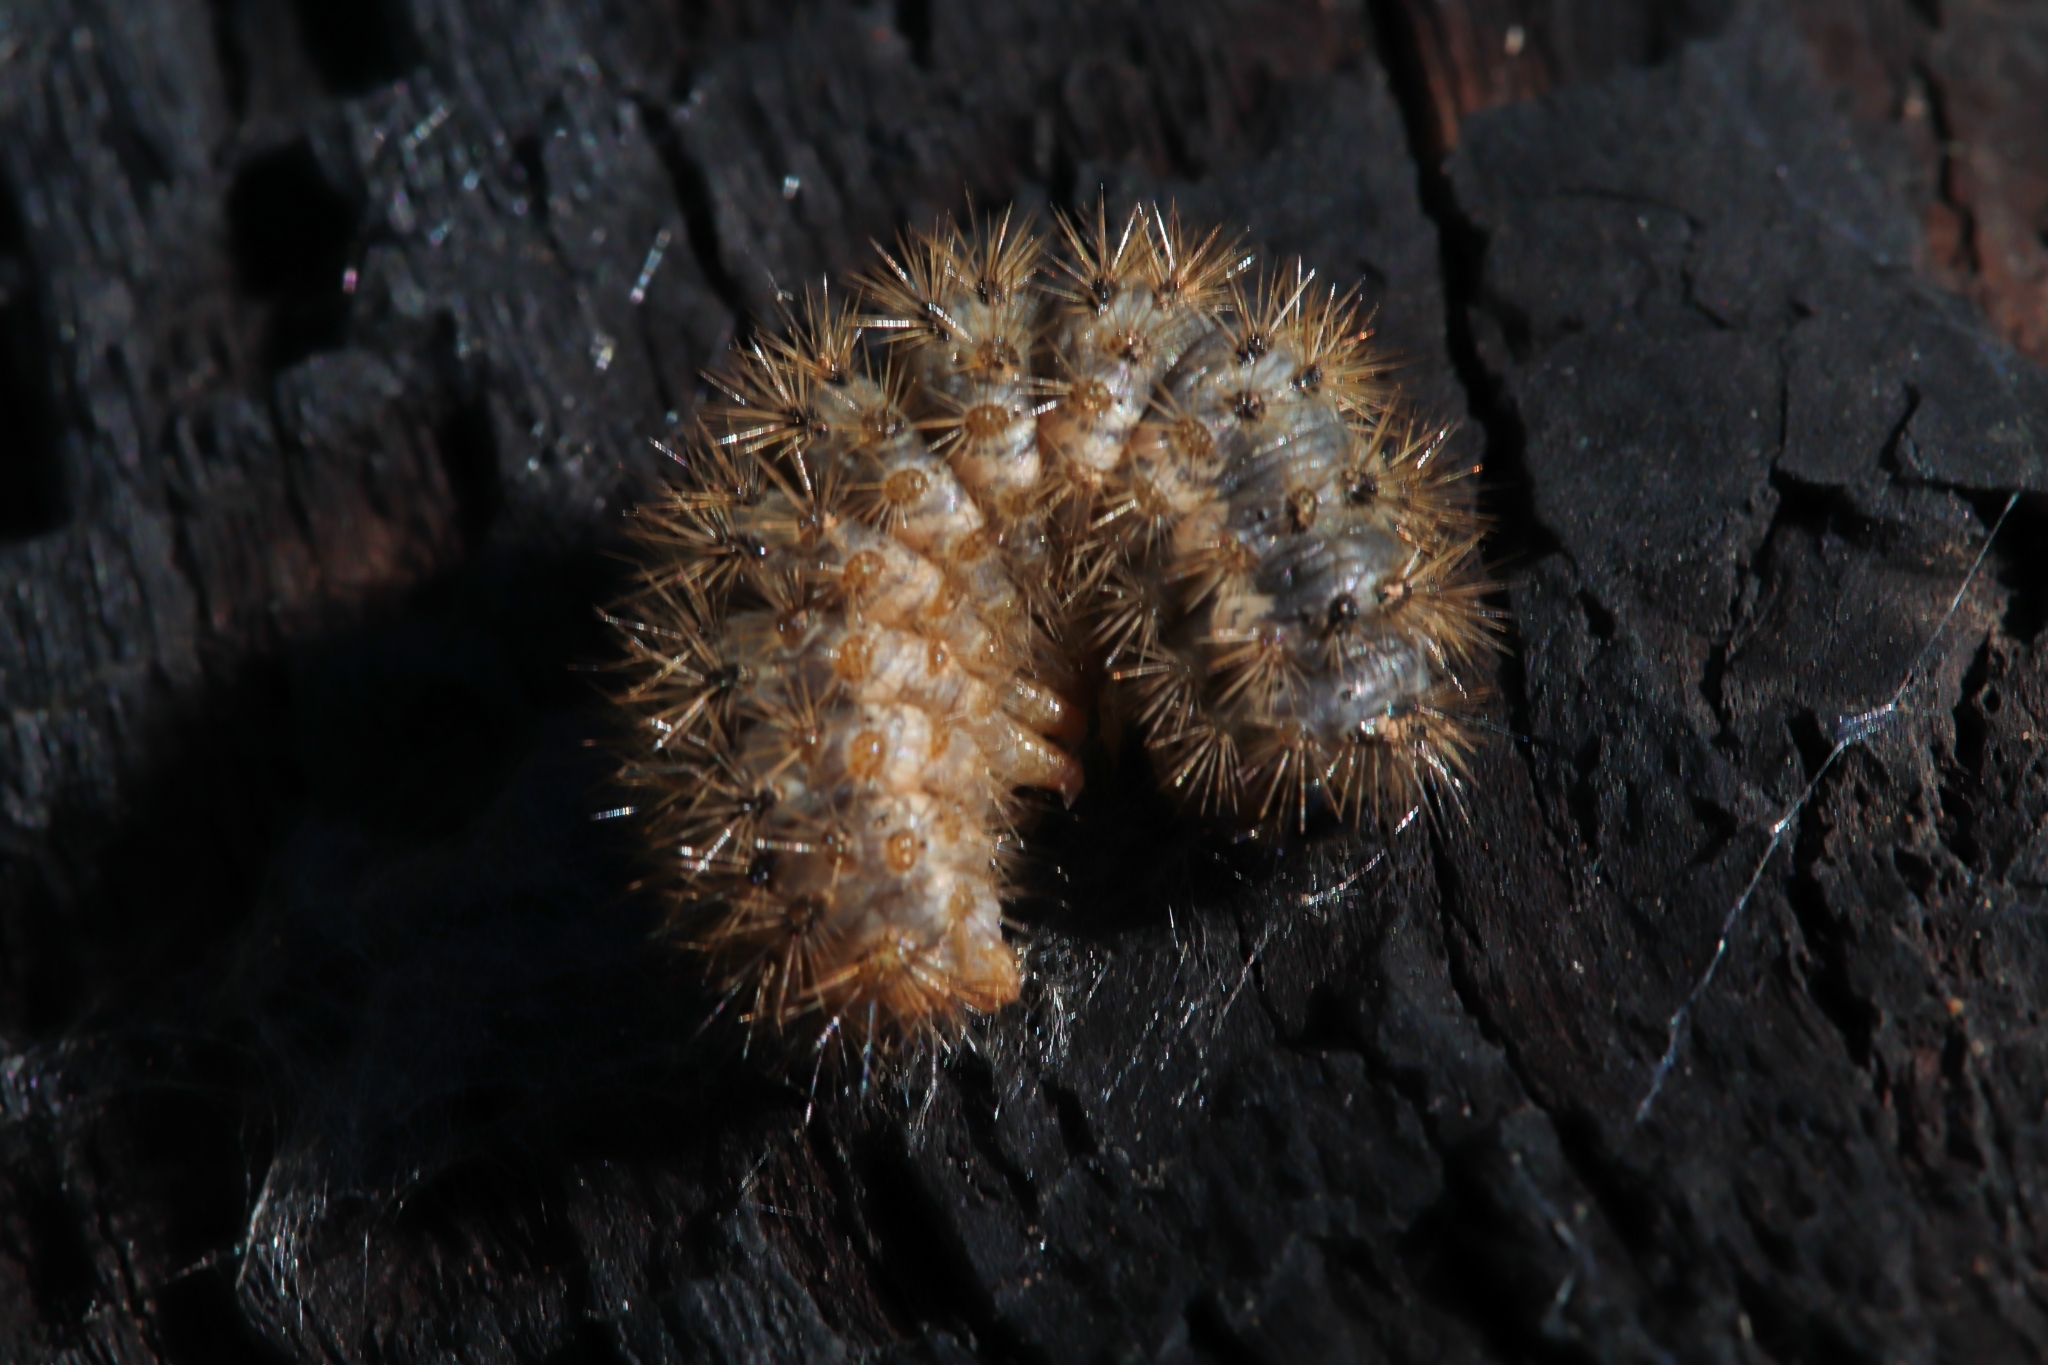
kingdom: Animalia
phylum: Arthropoda
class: Insecta
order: Lepidoptera
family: Erebidae
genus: Cymbalophora
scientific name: Cymbalophora pudica
